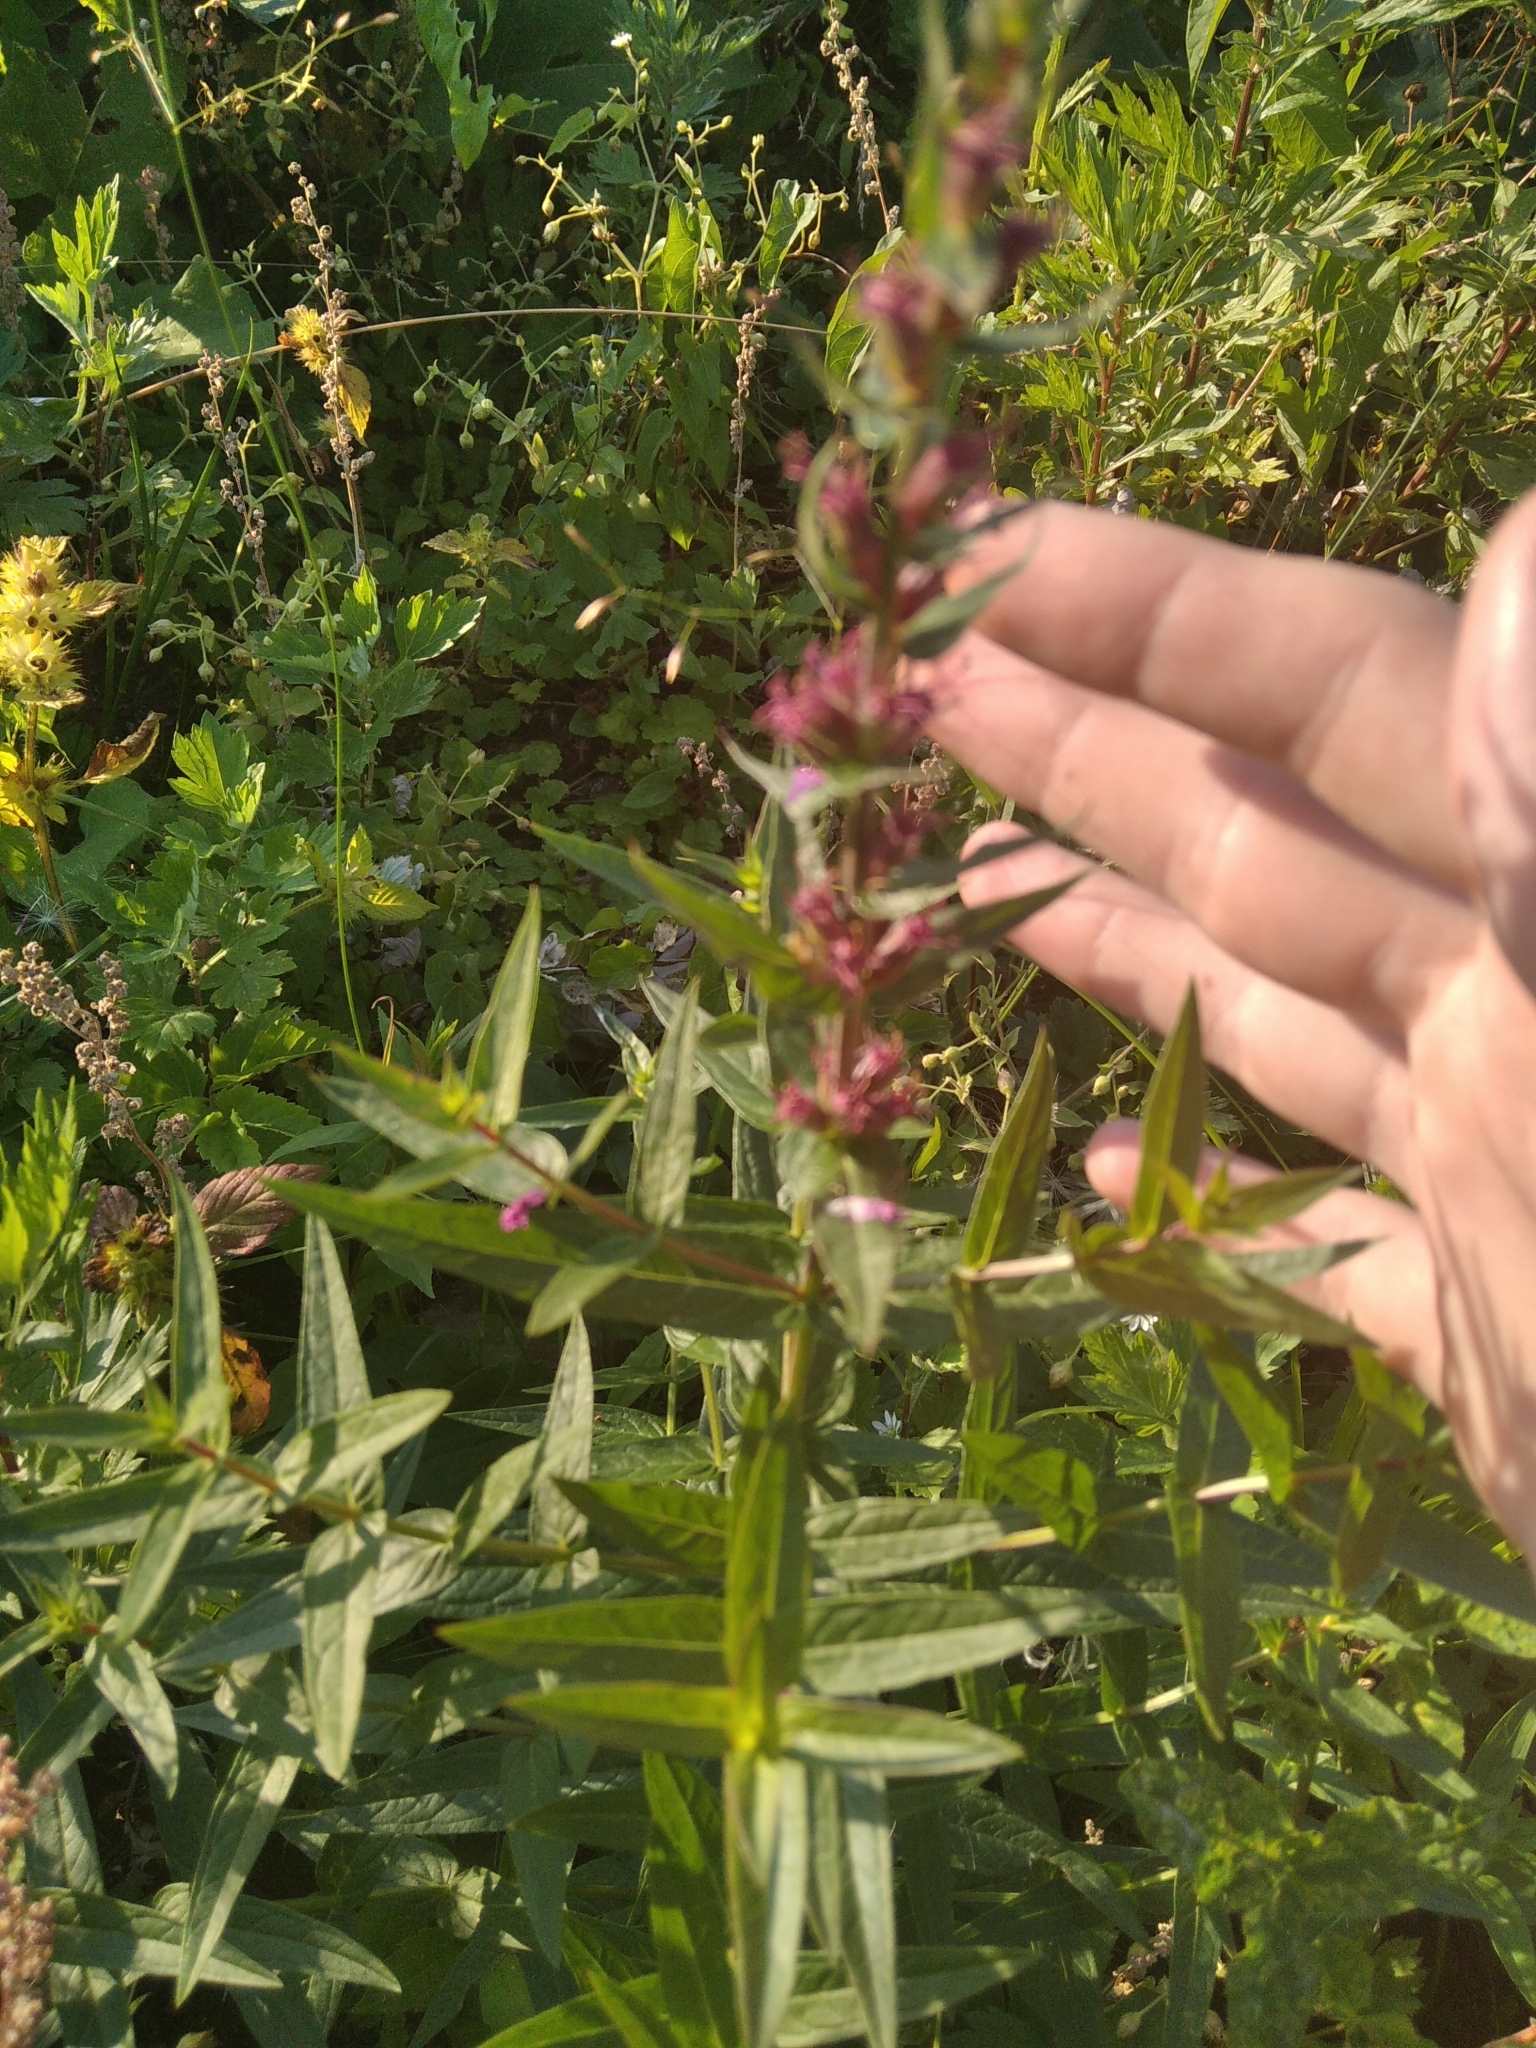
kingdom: Plantae
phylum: Tracheophyta
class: Magnoliopsida
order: Myrtales
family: Lythraceae
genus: Lythrum
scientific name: Lythrum salicaria
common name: Purple loosestrife
